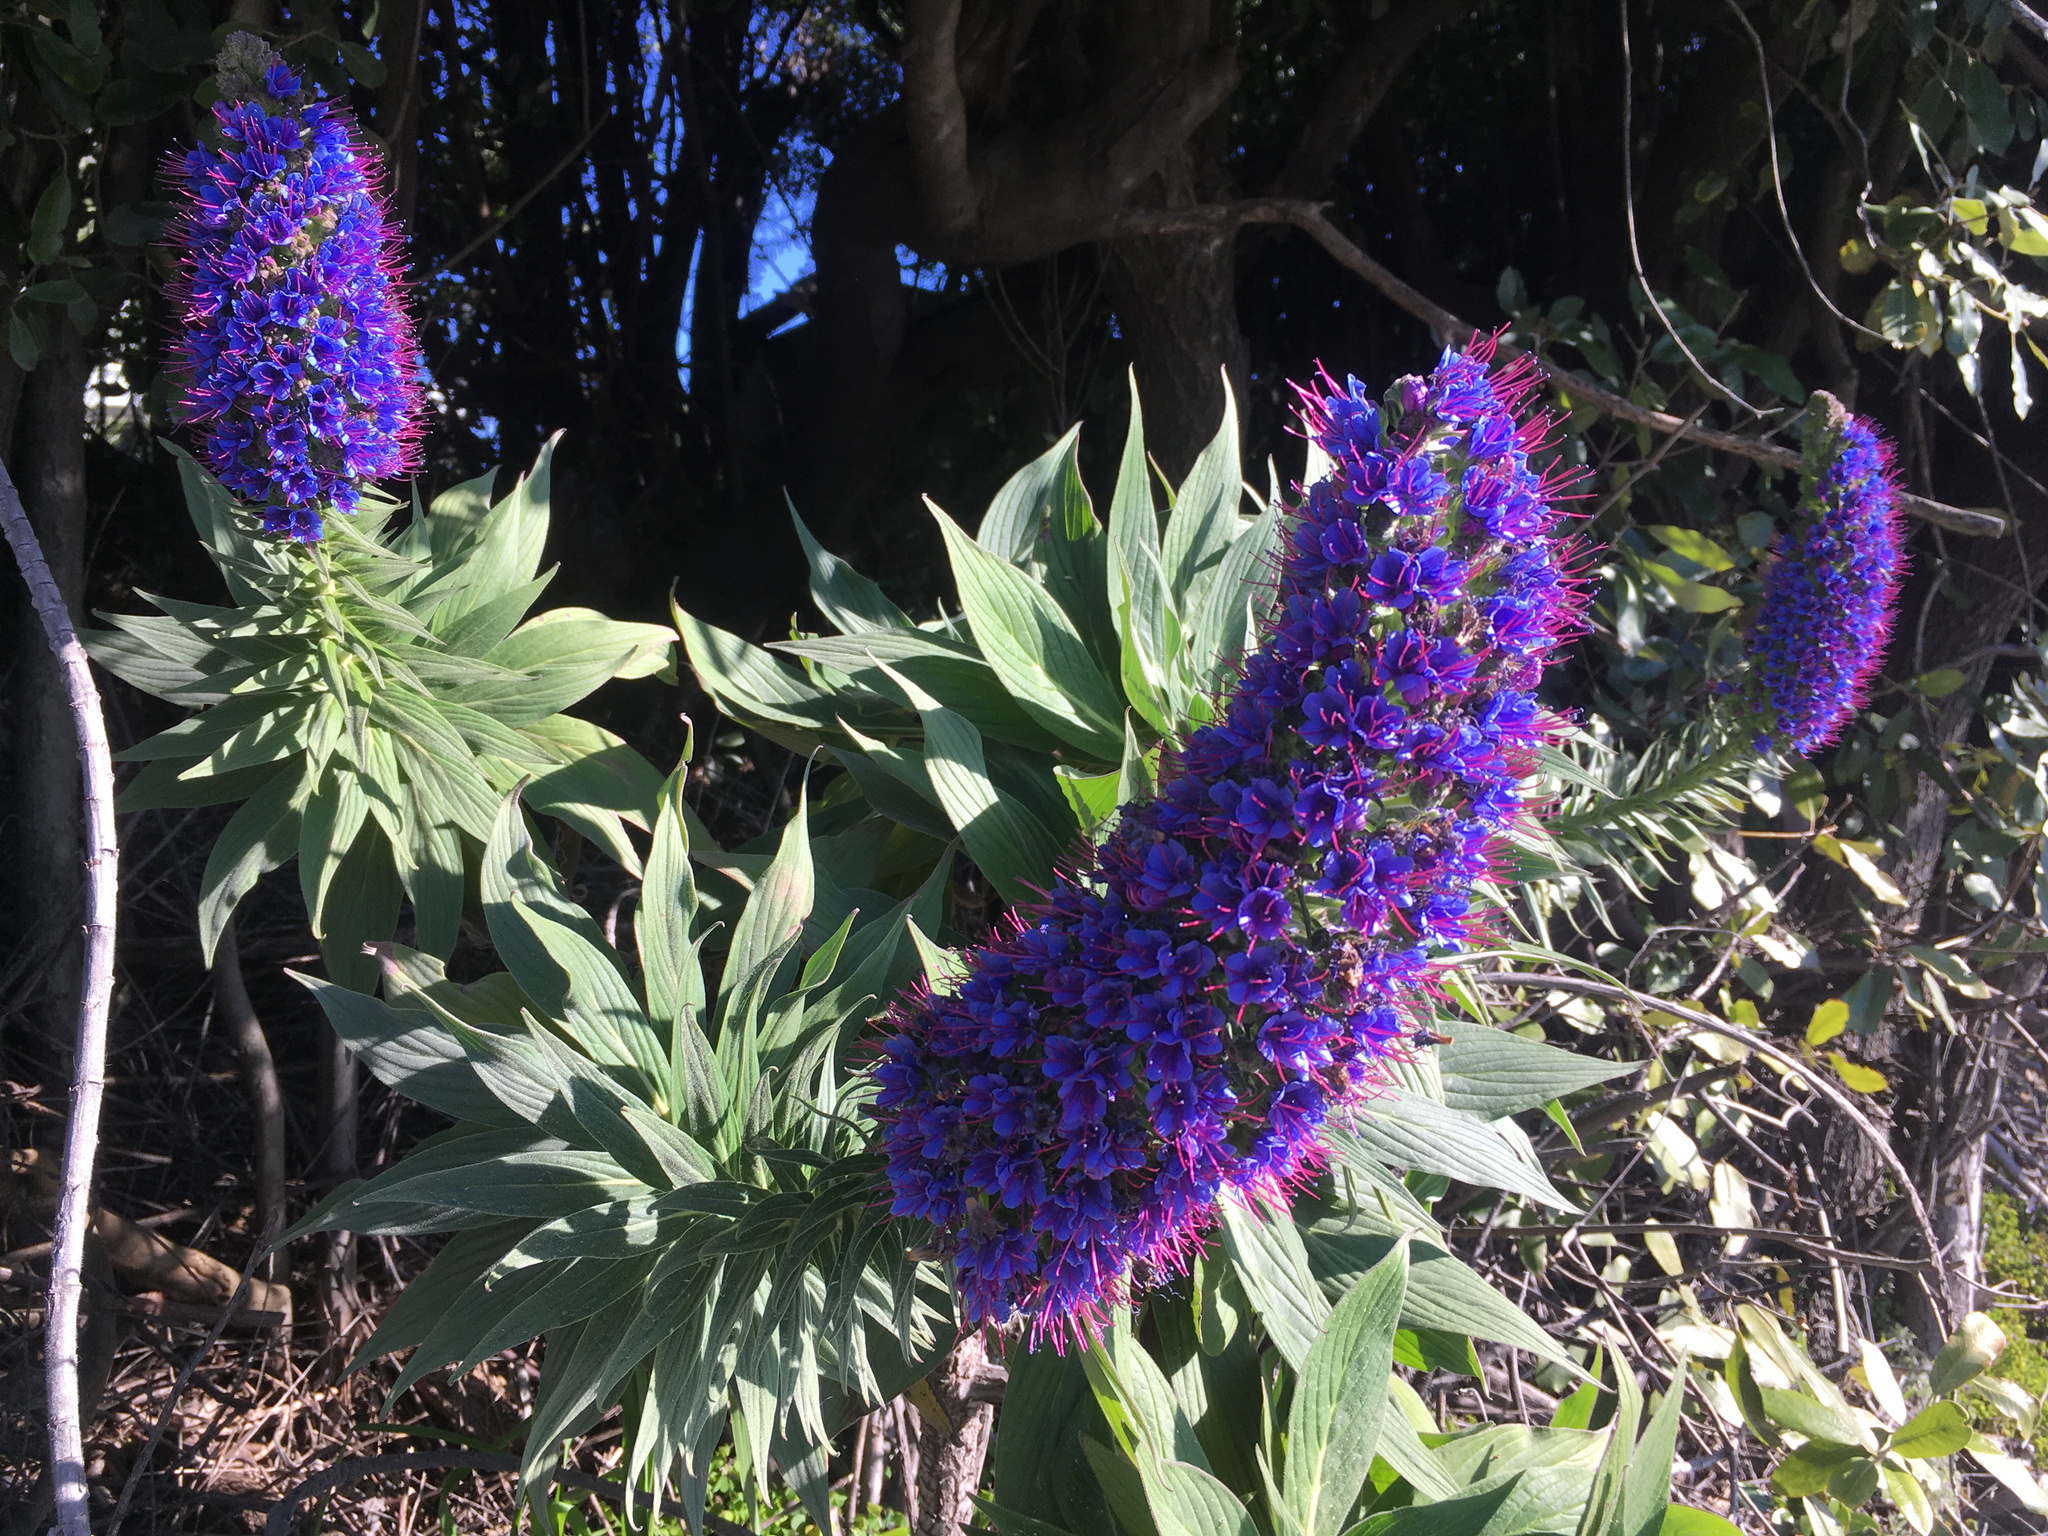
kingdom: Plantae
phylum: Tracheophyta
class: Magnoliopsida
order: Boraginales
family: Boraginaceae
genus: Echium
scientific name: Echium candicans
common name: Pride of madeira
